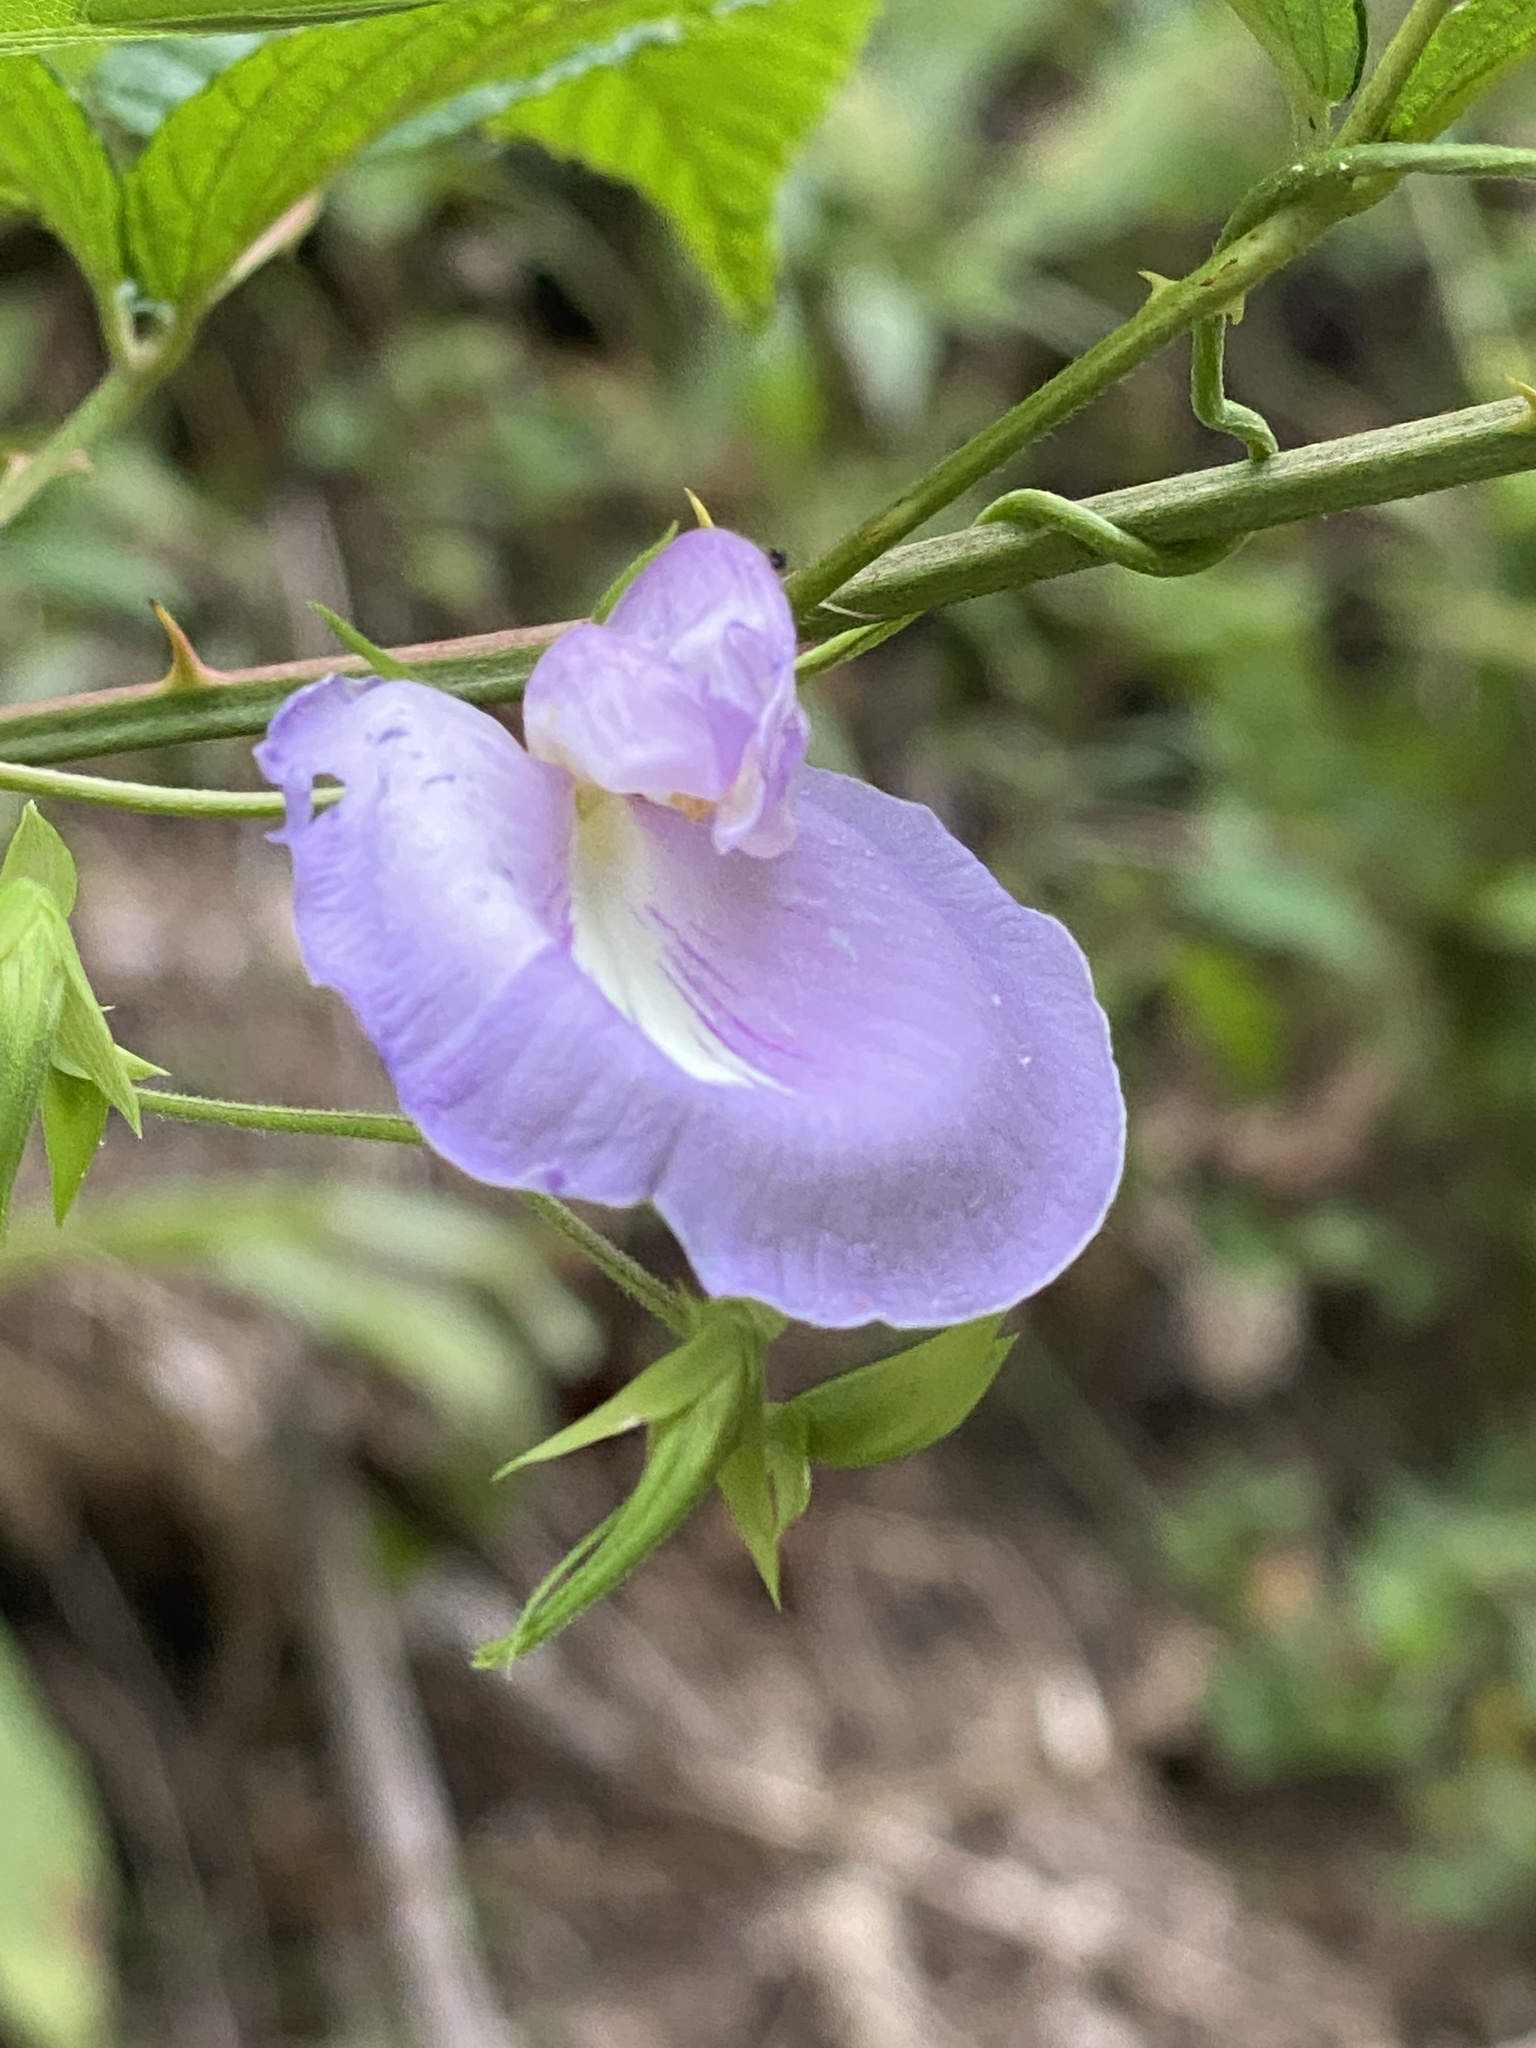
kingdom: Plantae
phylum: Tracheophyta
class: Magnoliopsida
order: Fabales
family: Fabaceae
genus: Centrosema
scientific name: Centrosema virginianum
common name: Butterfly-pea
